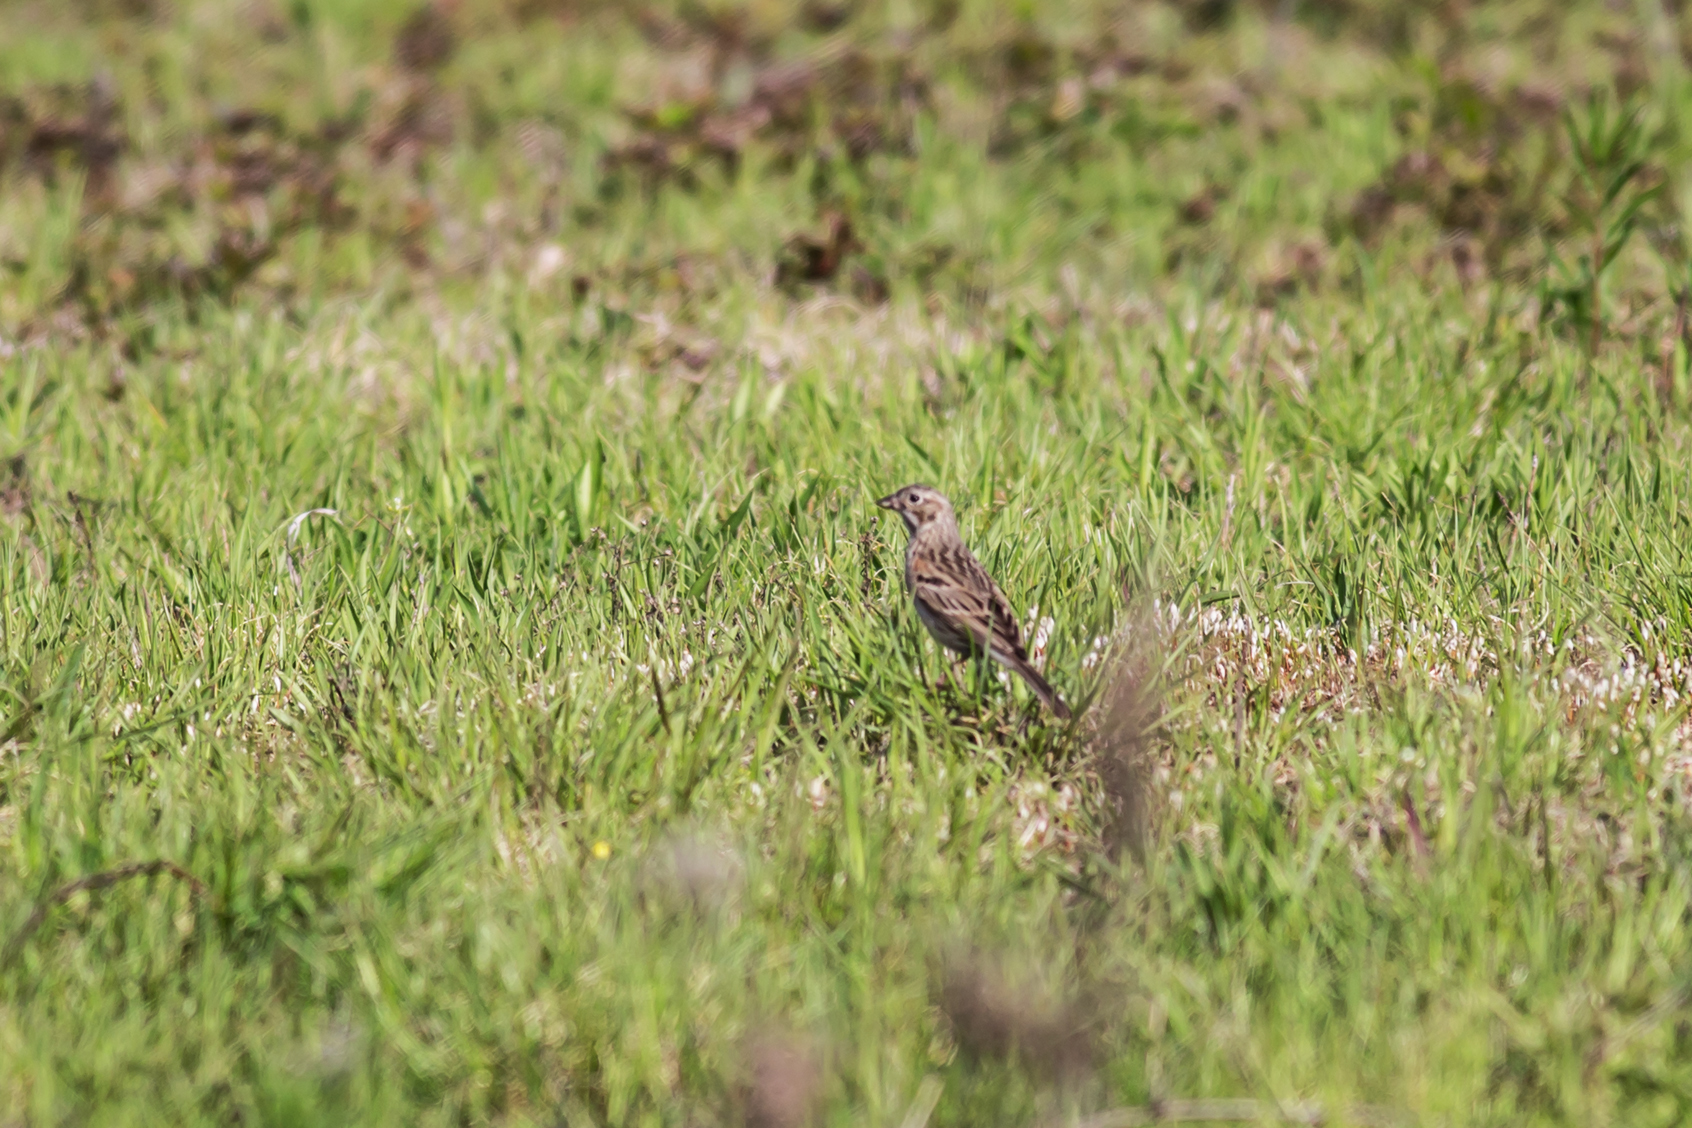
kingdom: Animalia
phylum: Chordata
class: Aves
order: Passeriformes
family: Passerellidae
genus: Pooecetes
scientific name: Pooecetes gramineus
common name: Vesper sparrow
